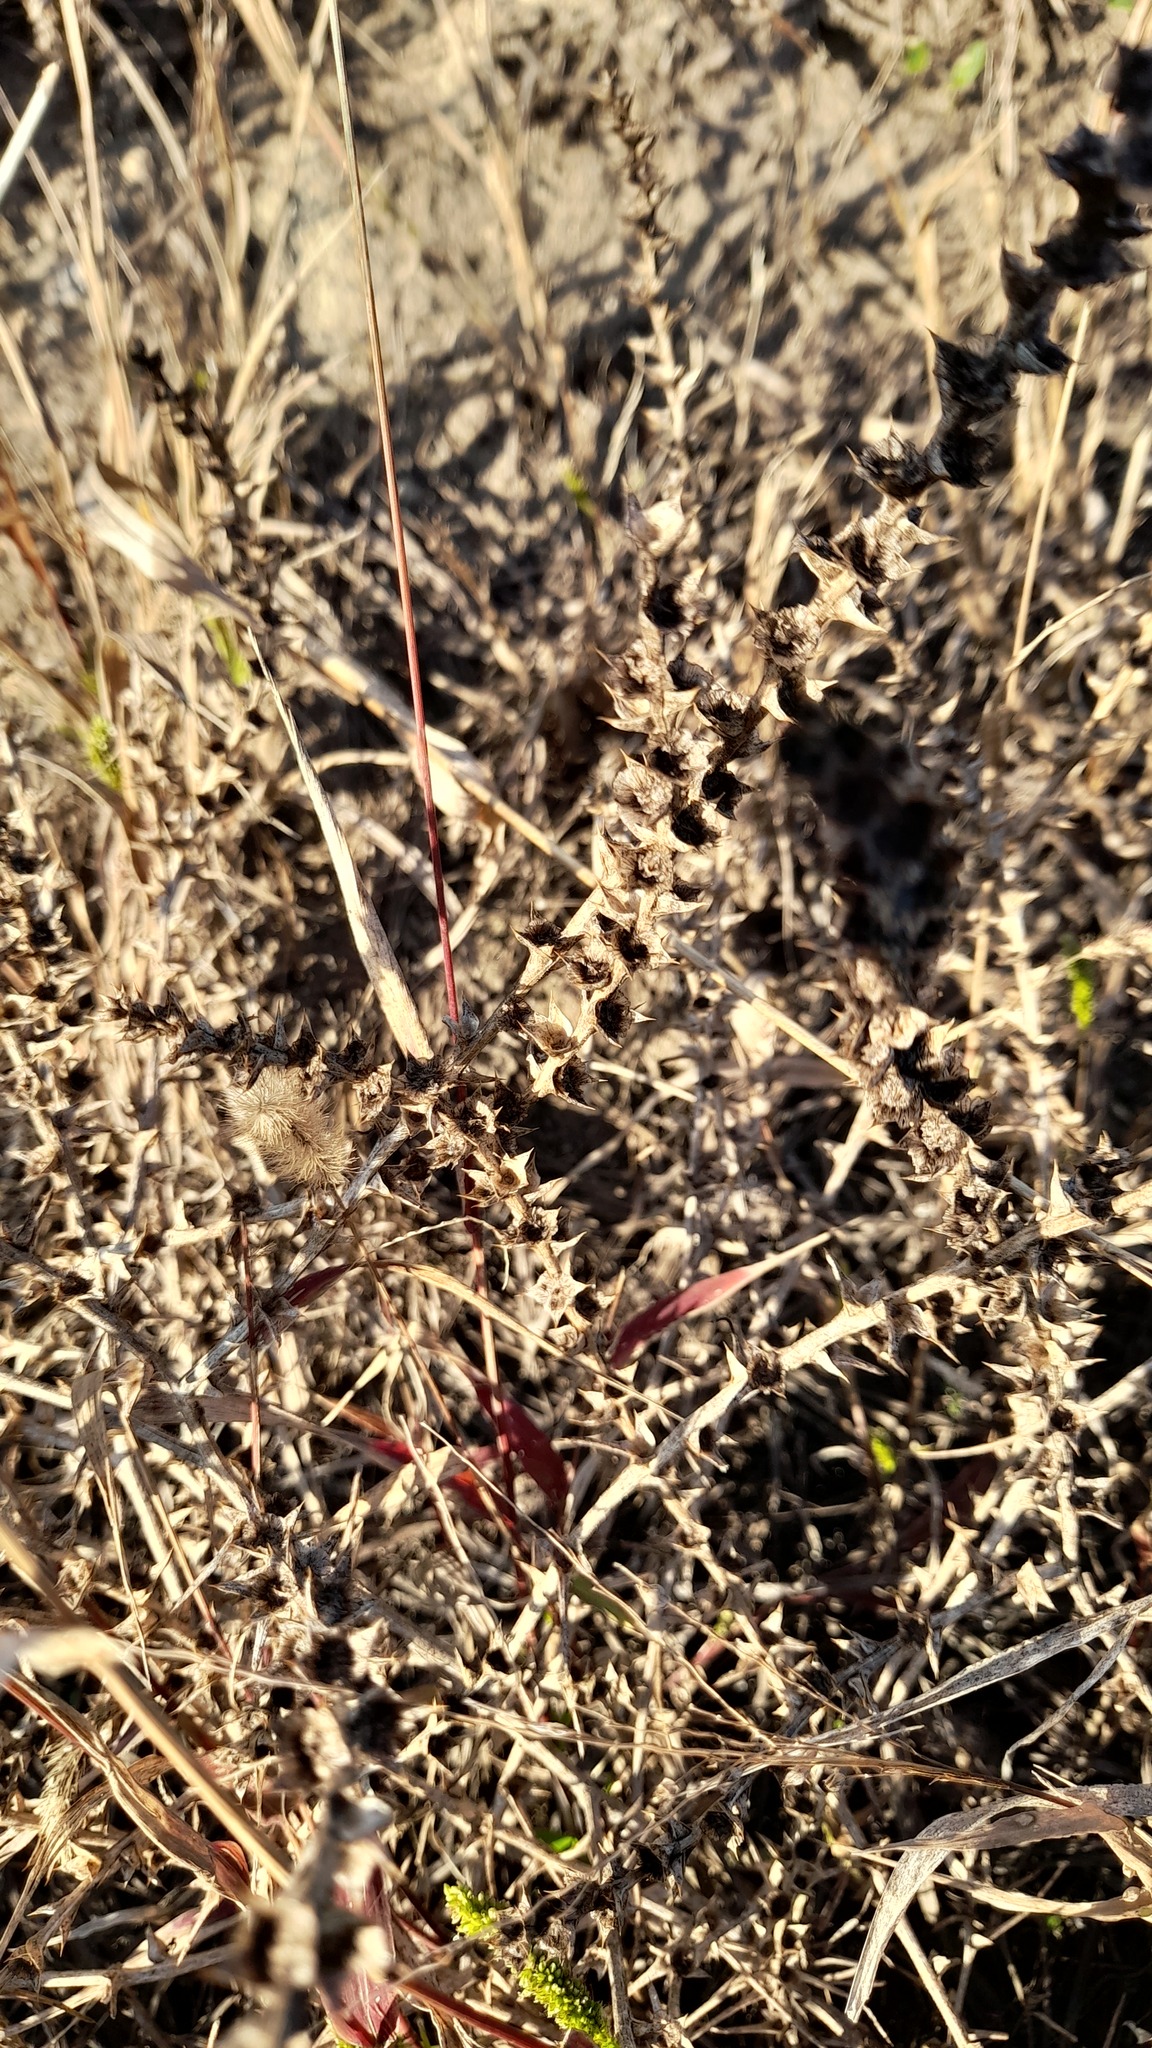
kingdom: Plantae
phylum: Tracheophyta
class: Magnoliopsida
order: Caryophyllales
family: Amaranthaceae
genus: Salsola
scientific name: Salsola tragus
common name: Prickly russian thistle
